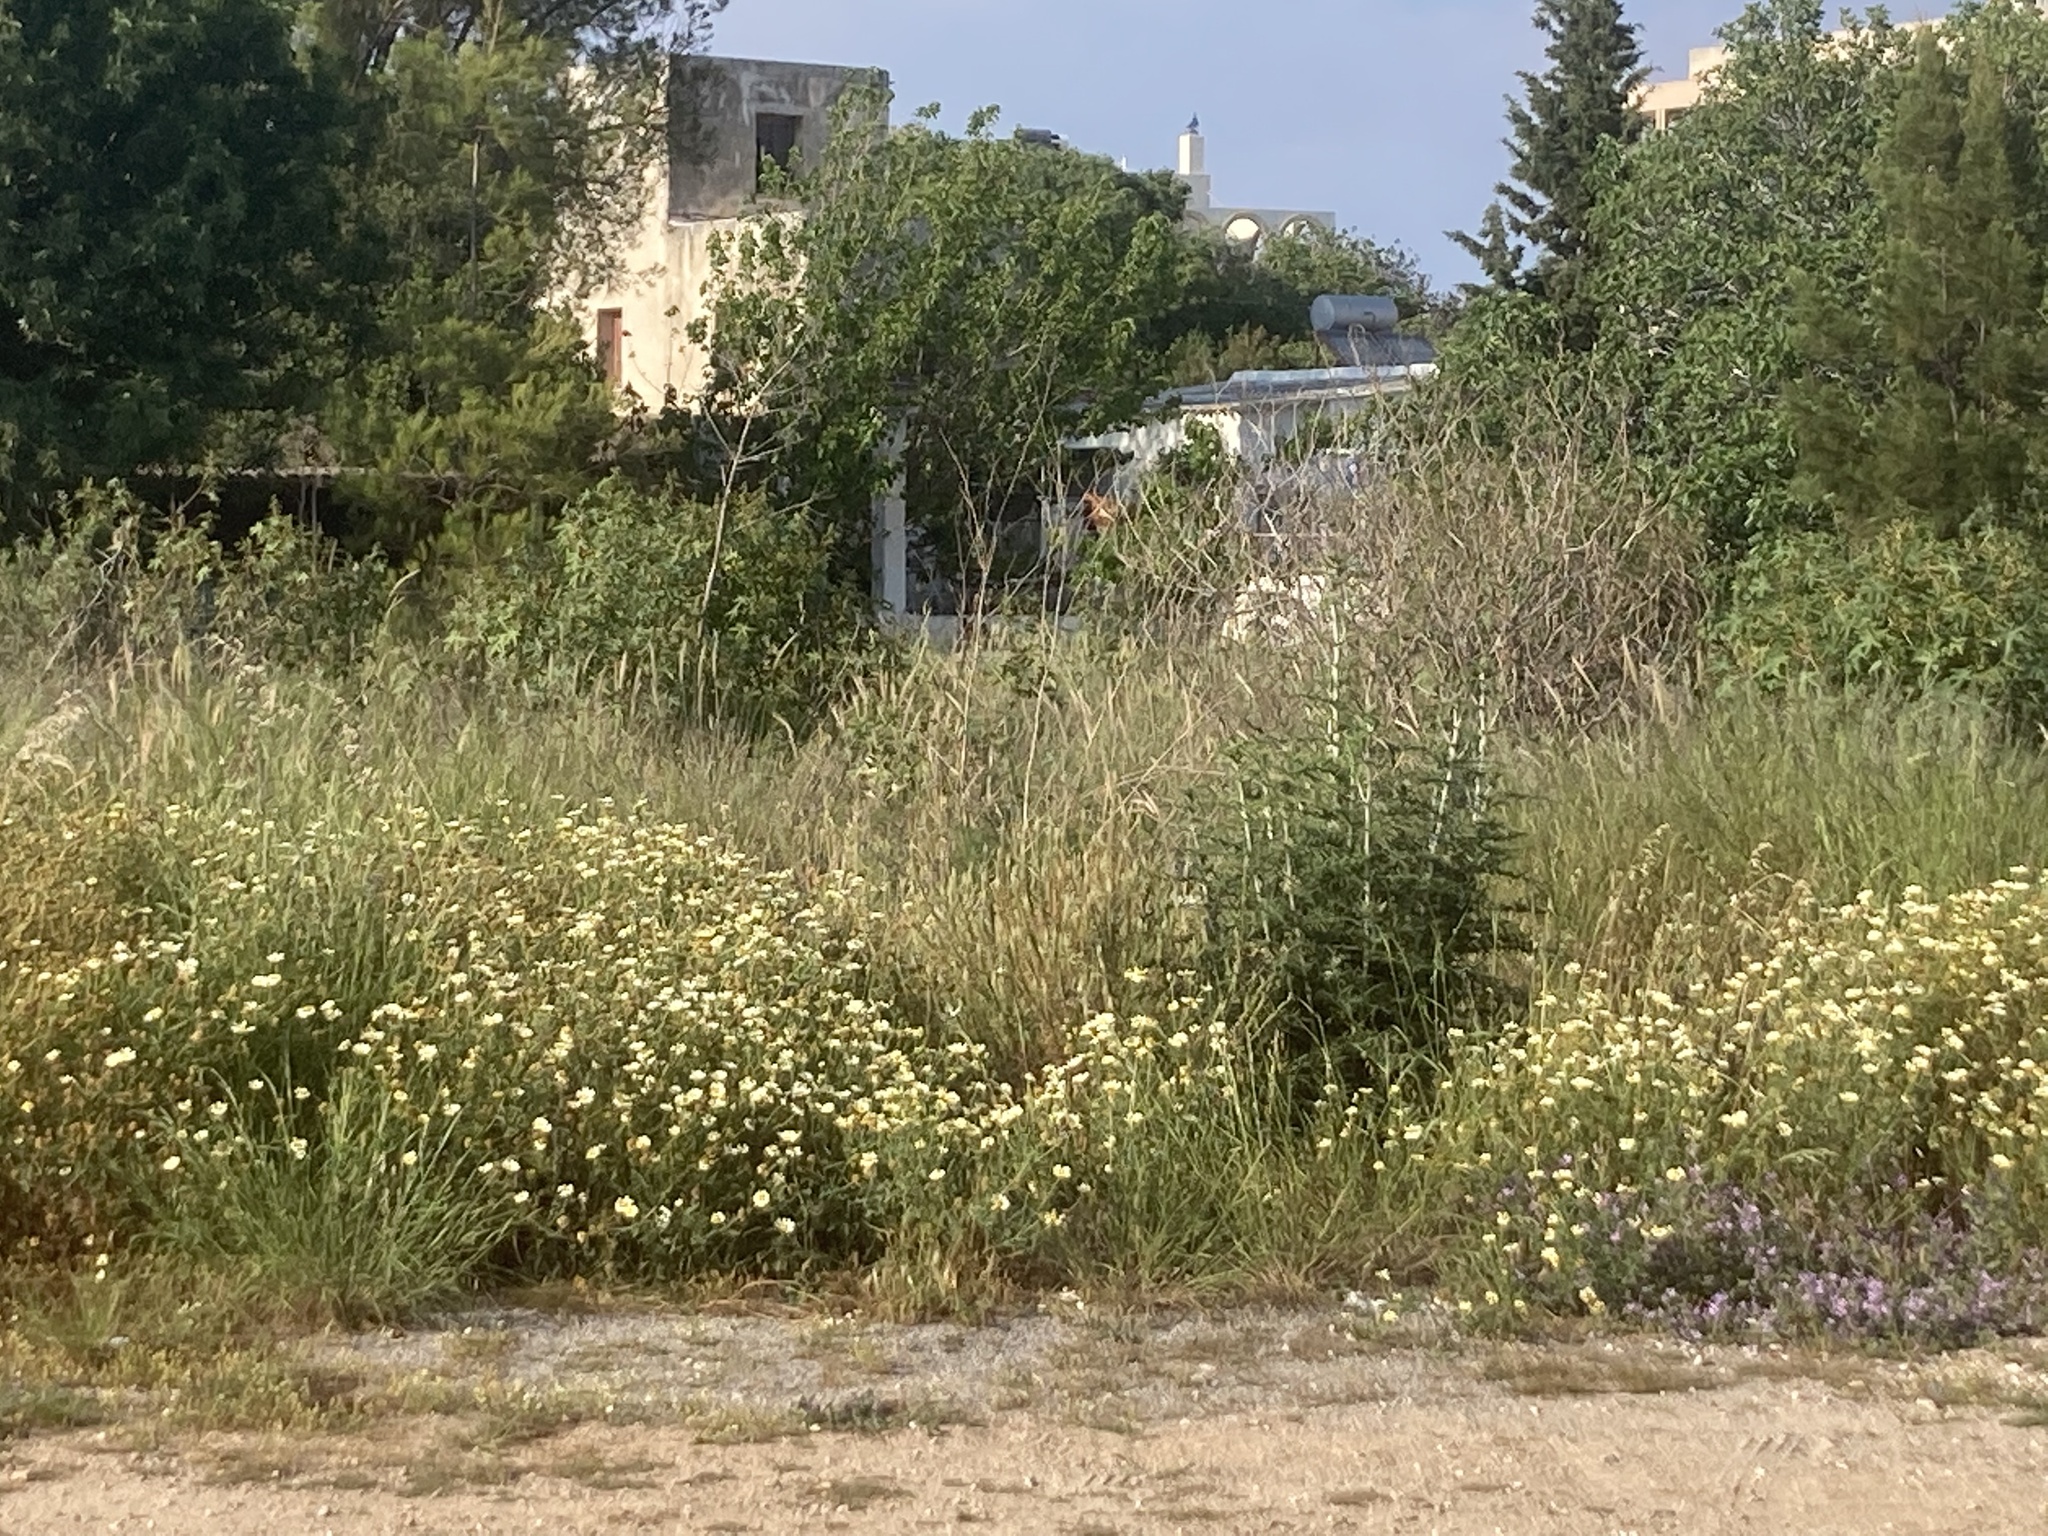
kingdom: Plantae
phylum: Tracheophyta
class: Magnoliopsida
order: Asterales
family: Asteraceae
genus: Glebionis
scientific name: Glebionis coronaria
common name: Crowndaisy
